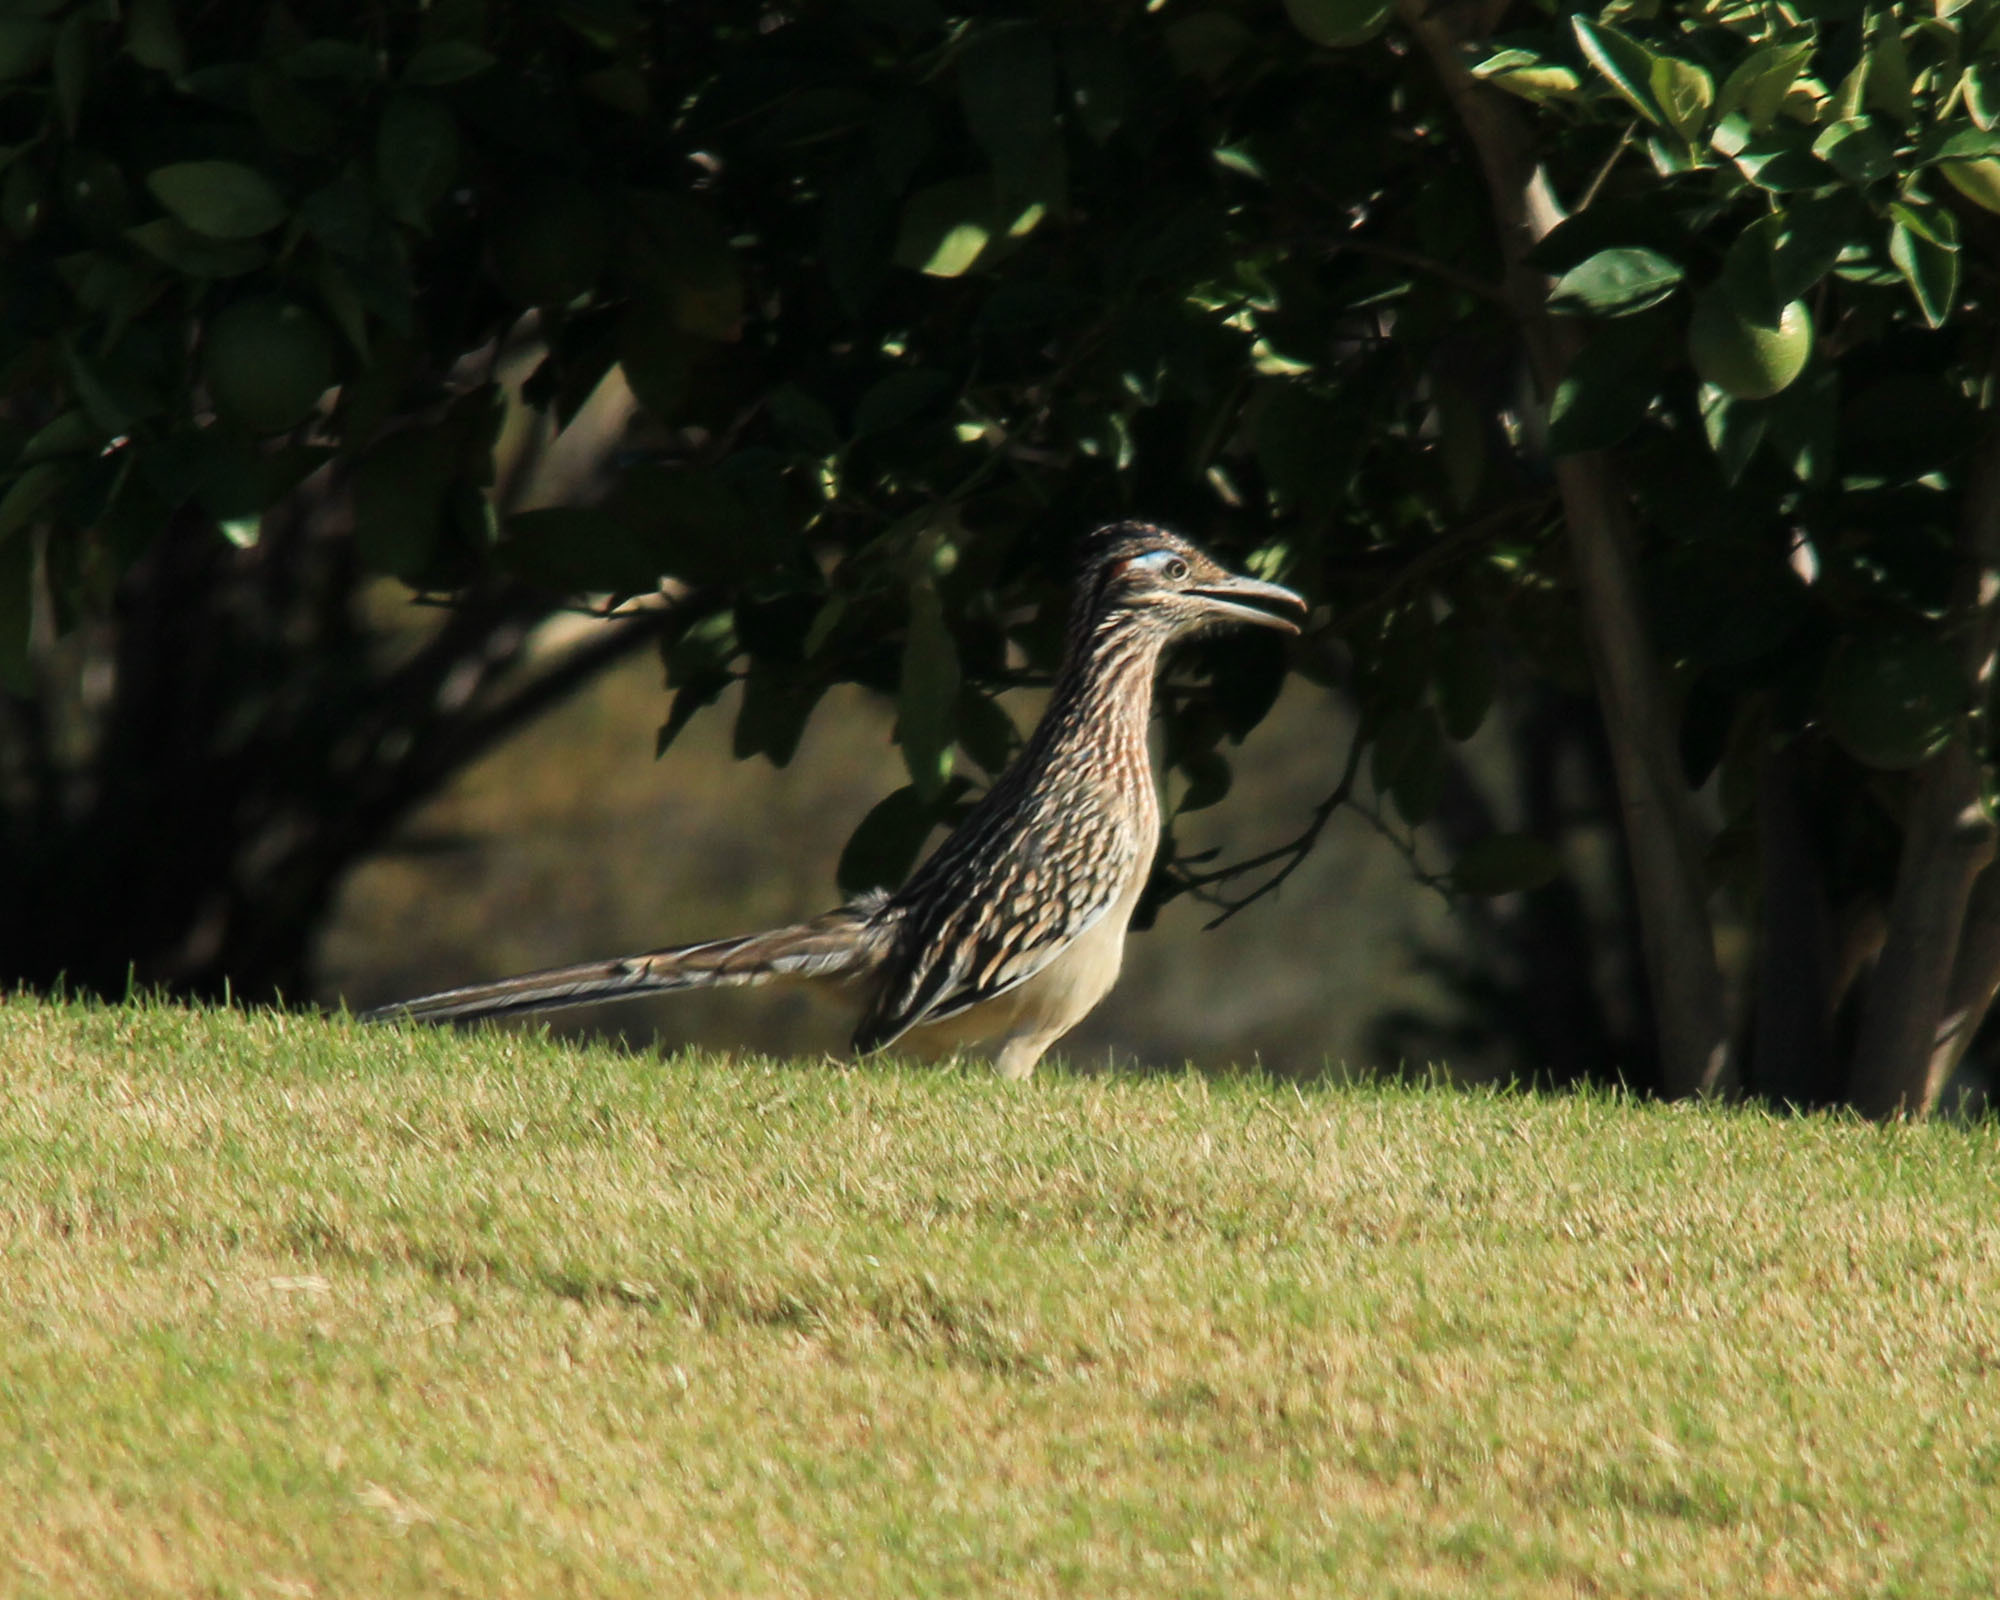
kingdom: Animalia
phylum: Chordata
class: Aves
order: Cuculiformes
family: Cuculidae
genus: Geococcyx
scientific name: Geococcyx californianus
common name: Greater roadrunner
